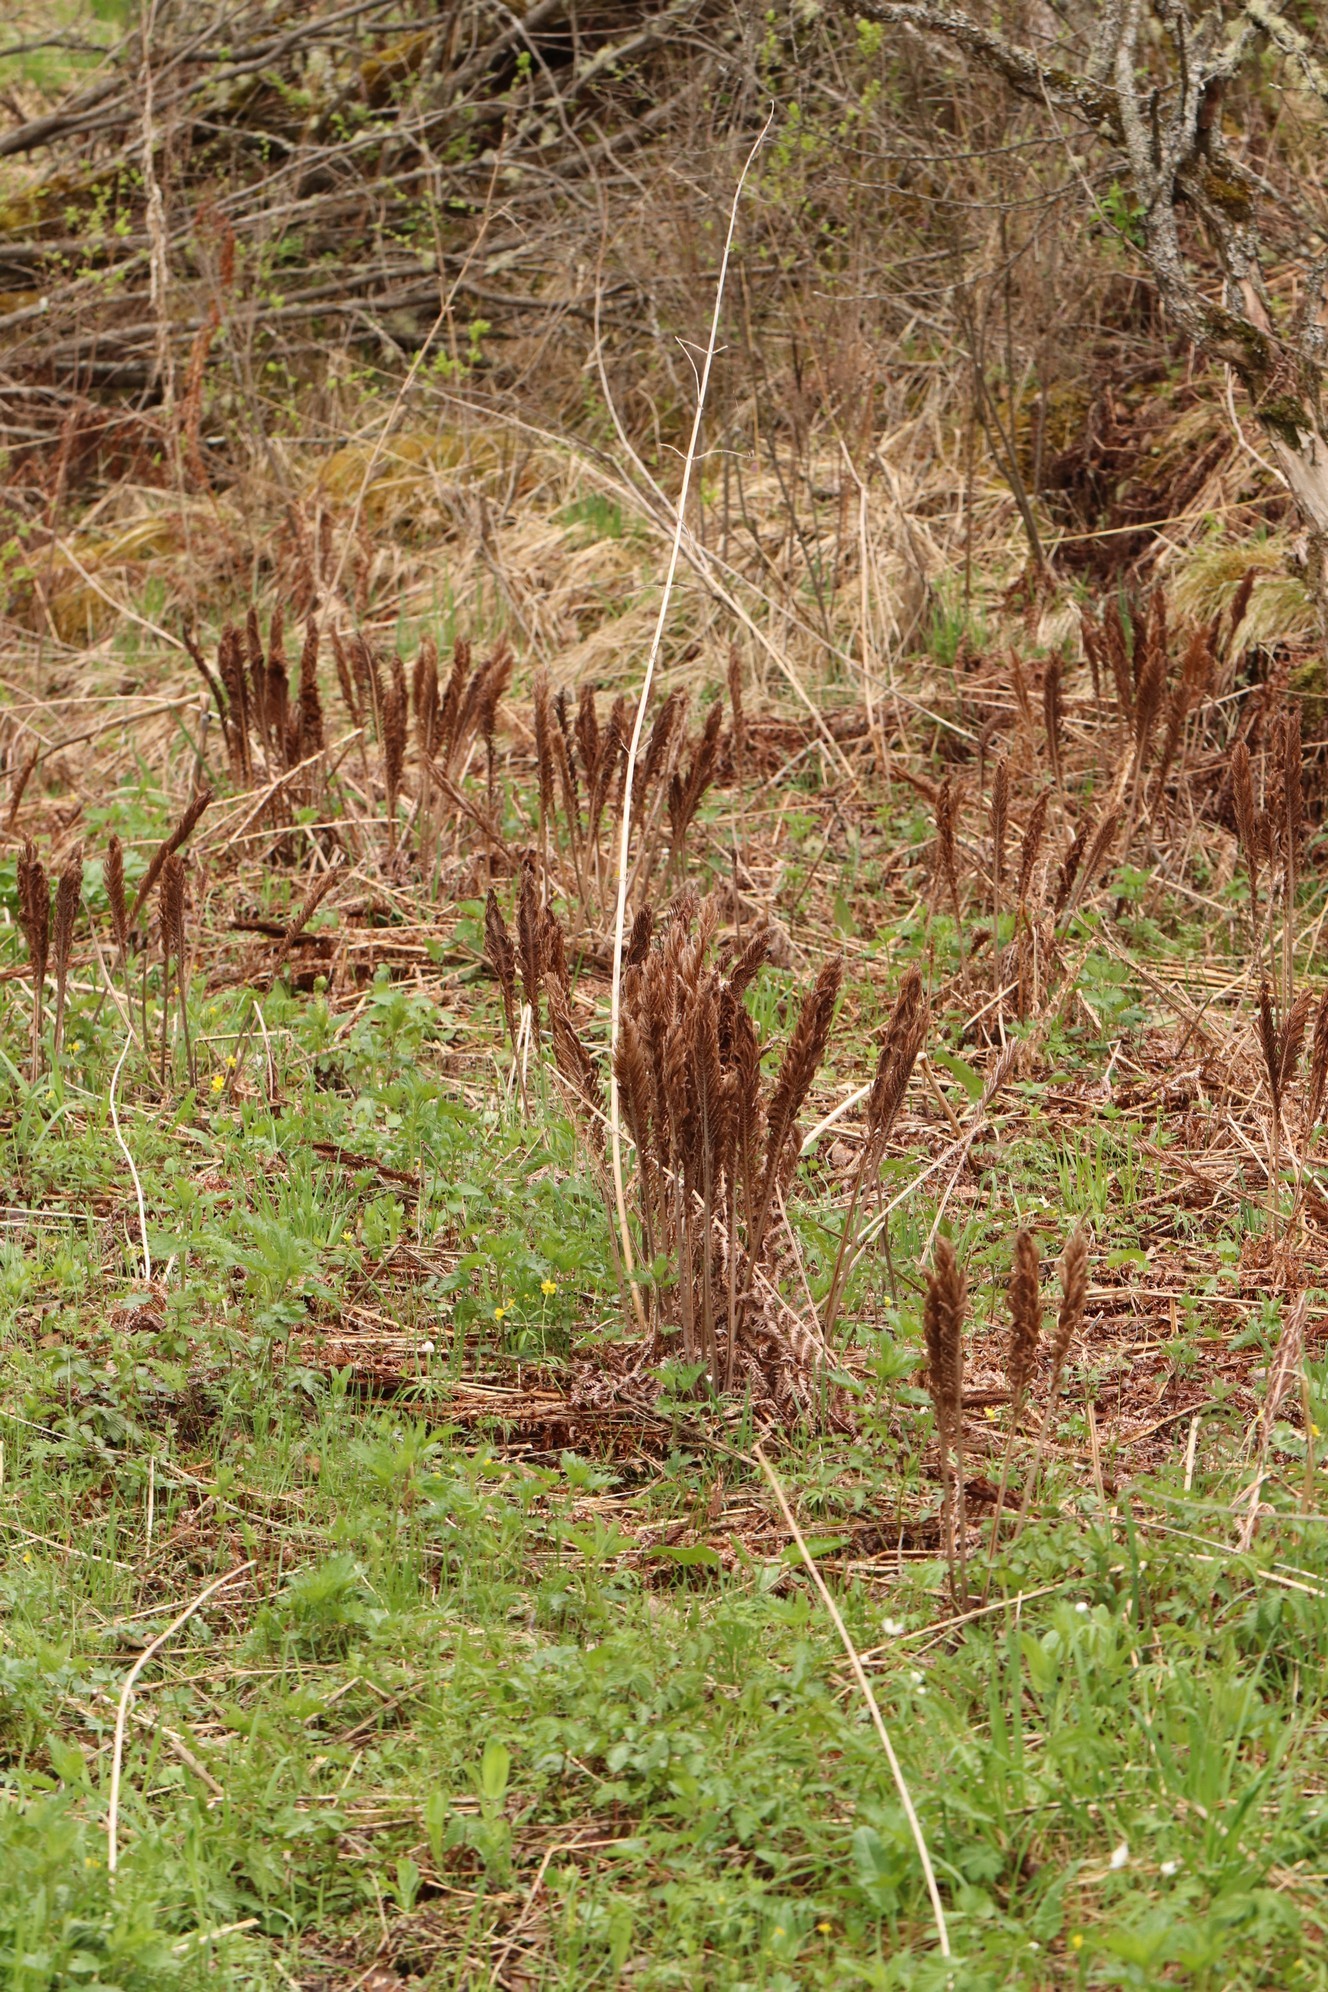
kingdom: Plantae
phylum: Tracheophyta
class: Polypodiopsida
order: Polypodiales
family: Onocleaceae
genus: Matteuccia
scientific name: Matteuccia struthiopteris
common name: Ostrich fern
